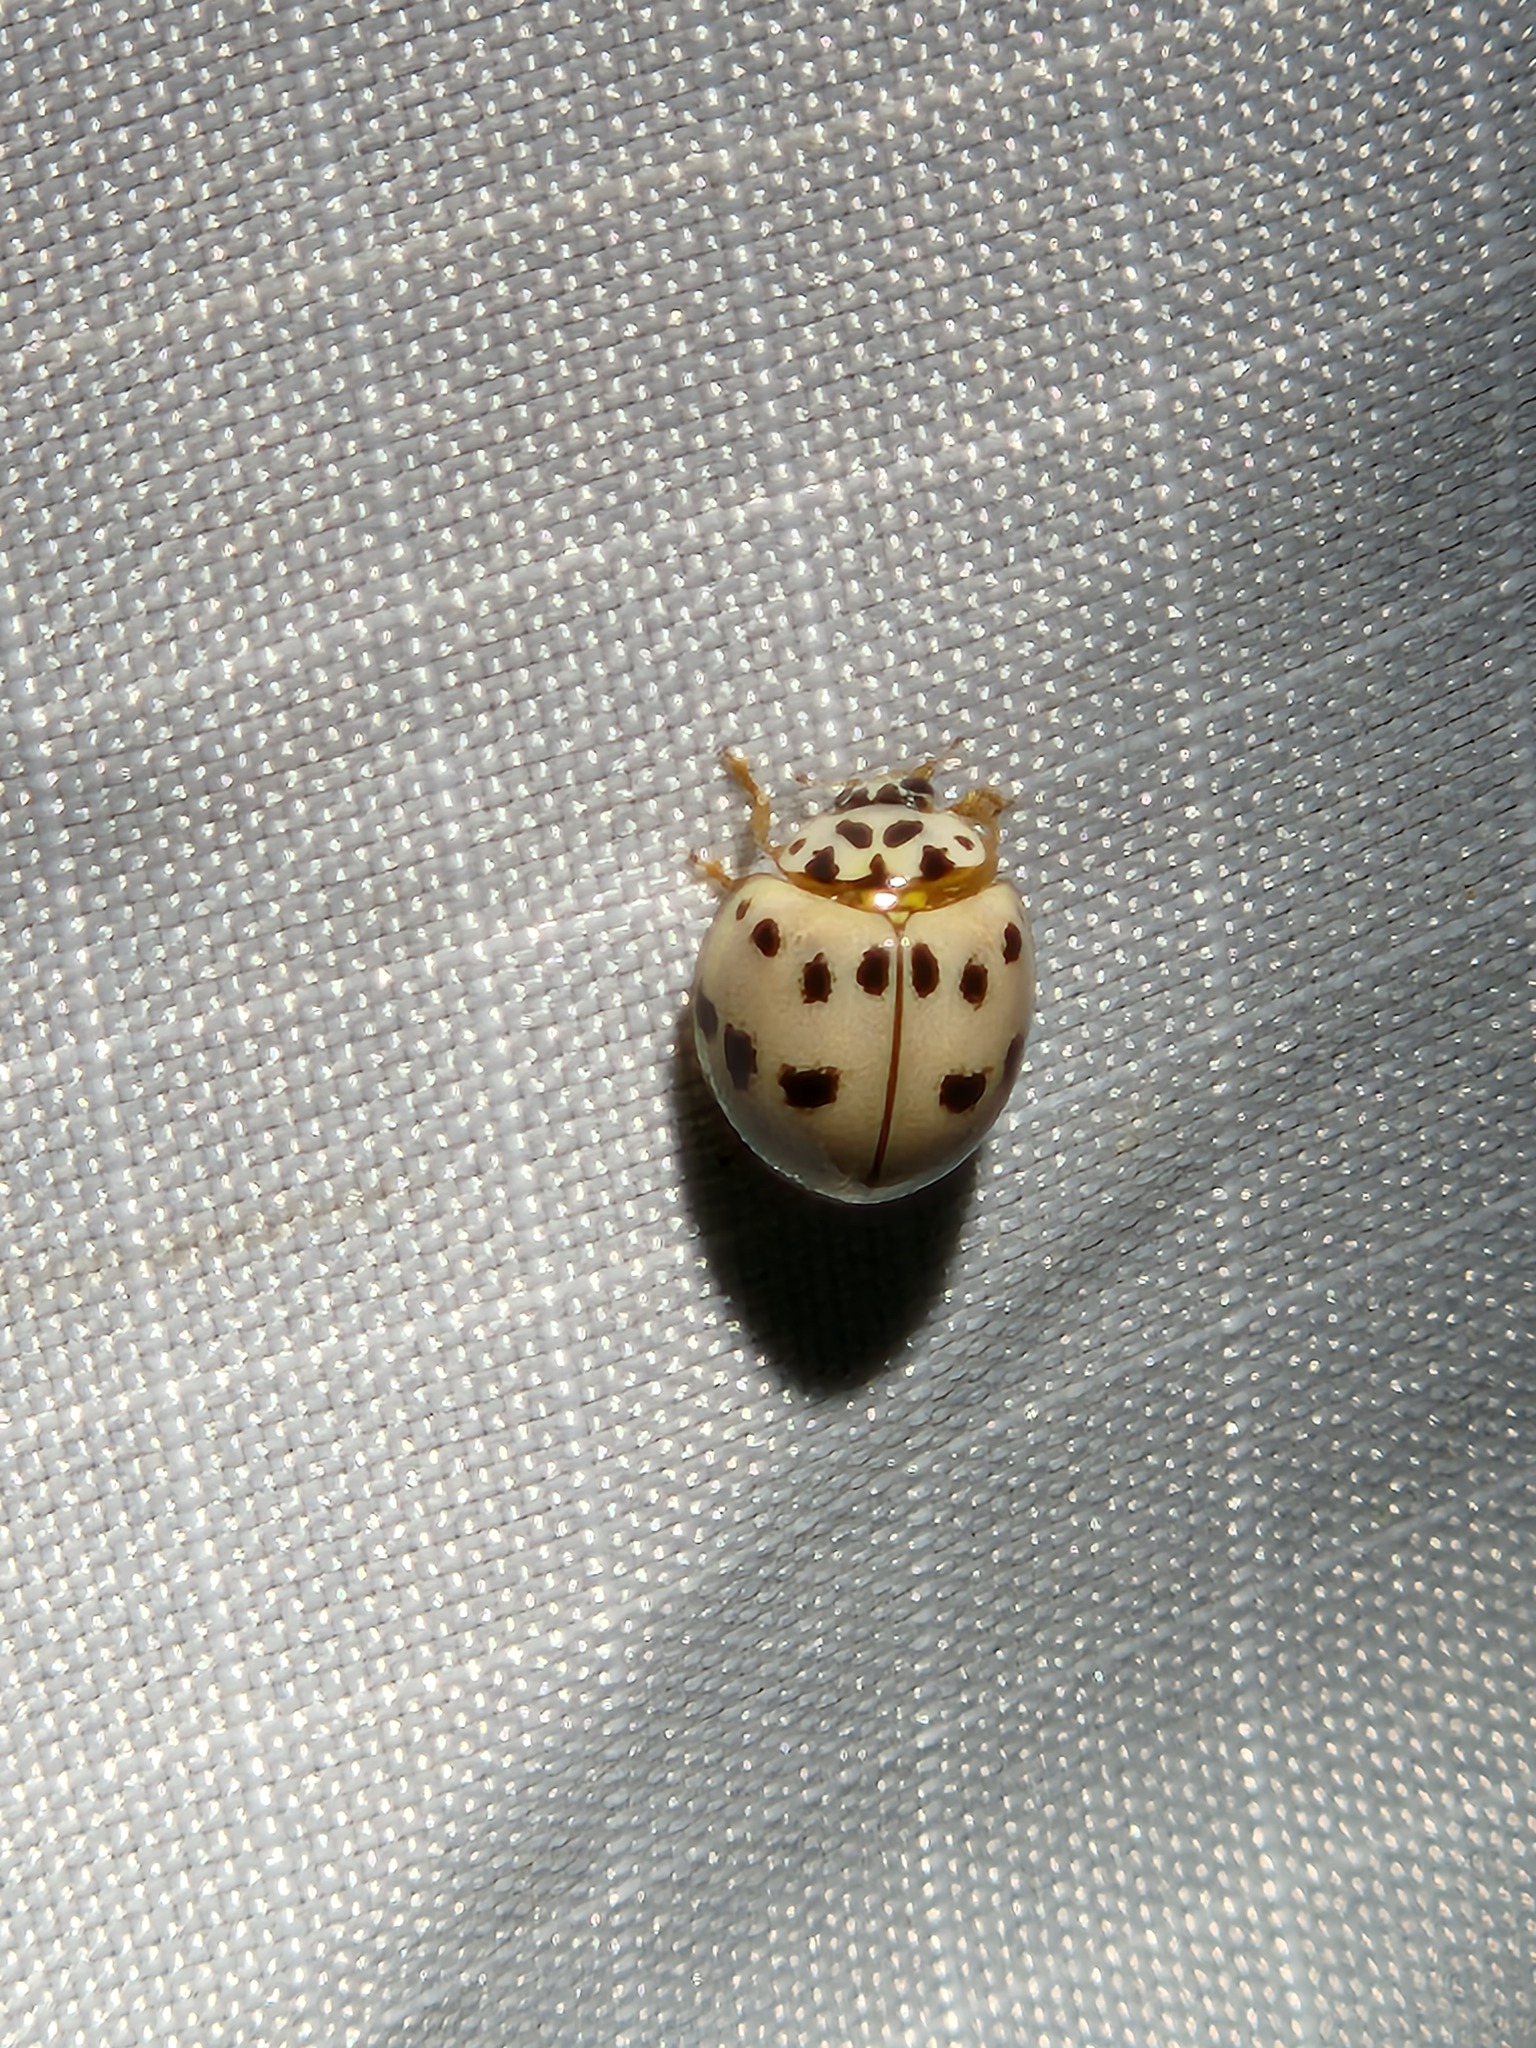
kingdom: Animalia
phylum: Arthropoda
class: Insecta
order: Coleoptera
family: Coccinellidae
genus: Olla
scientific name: Olla v-nigrum
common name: Ashy gray lady beetle
